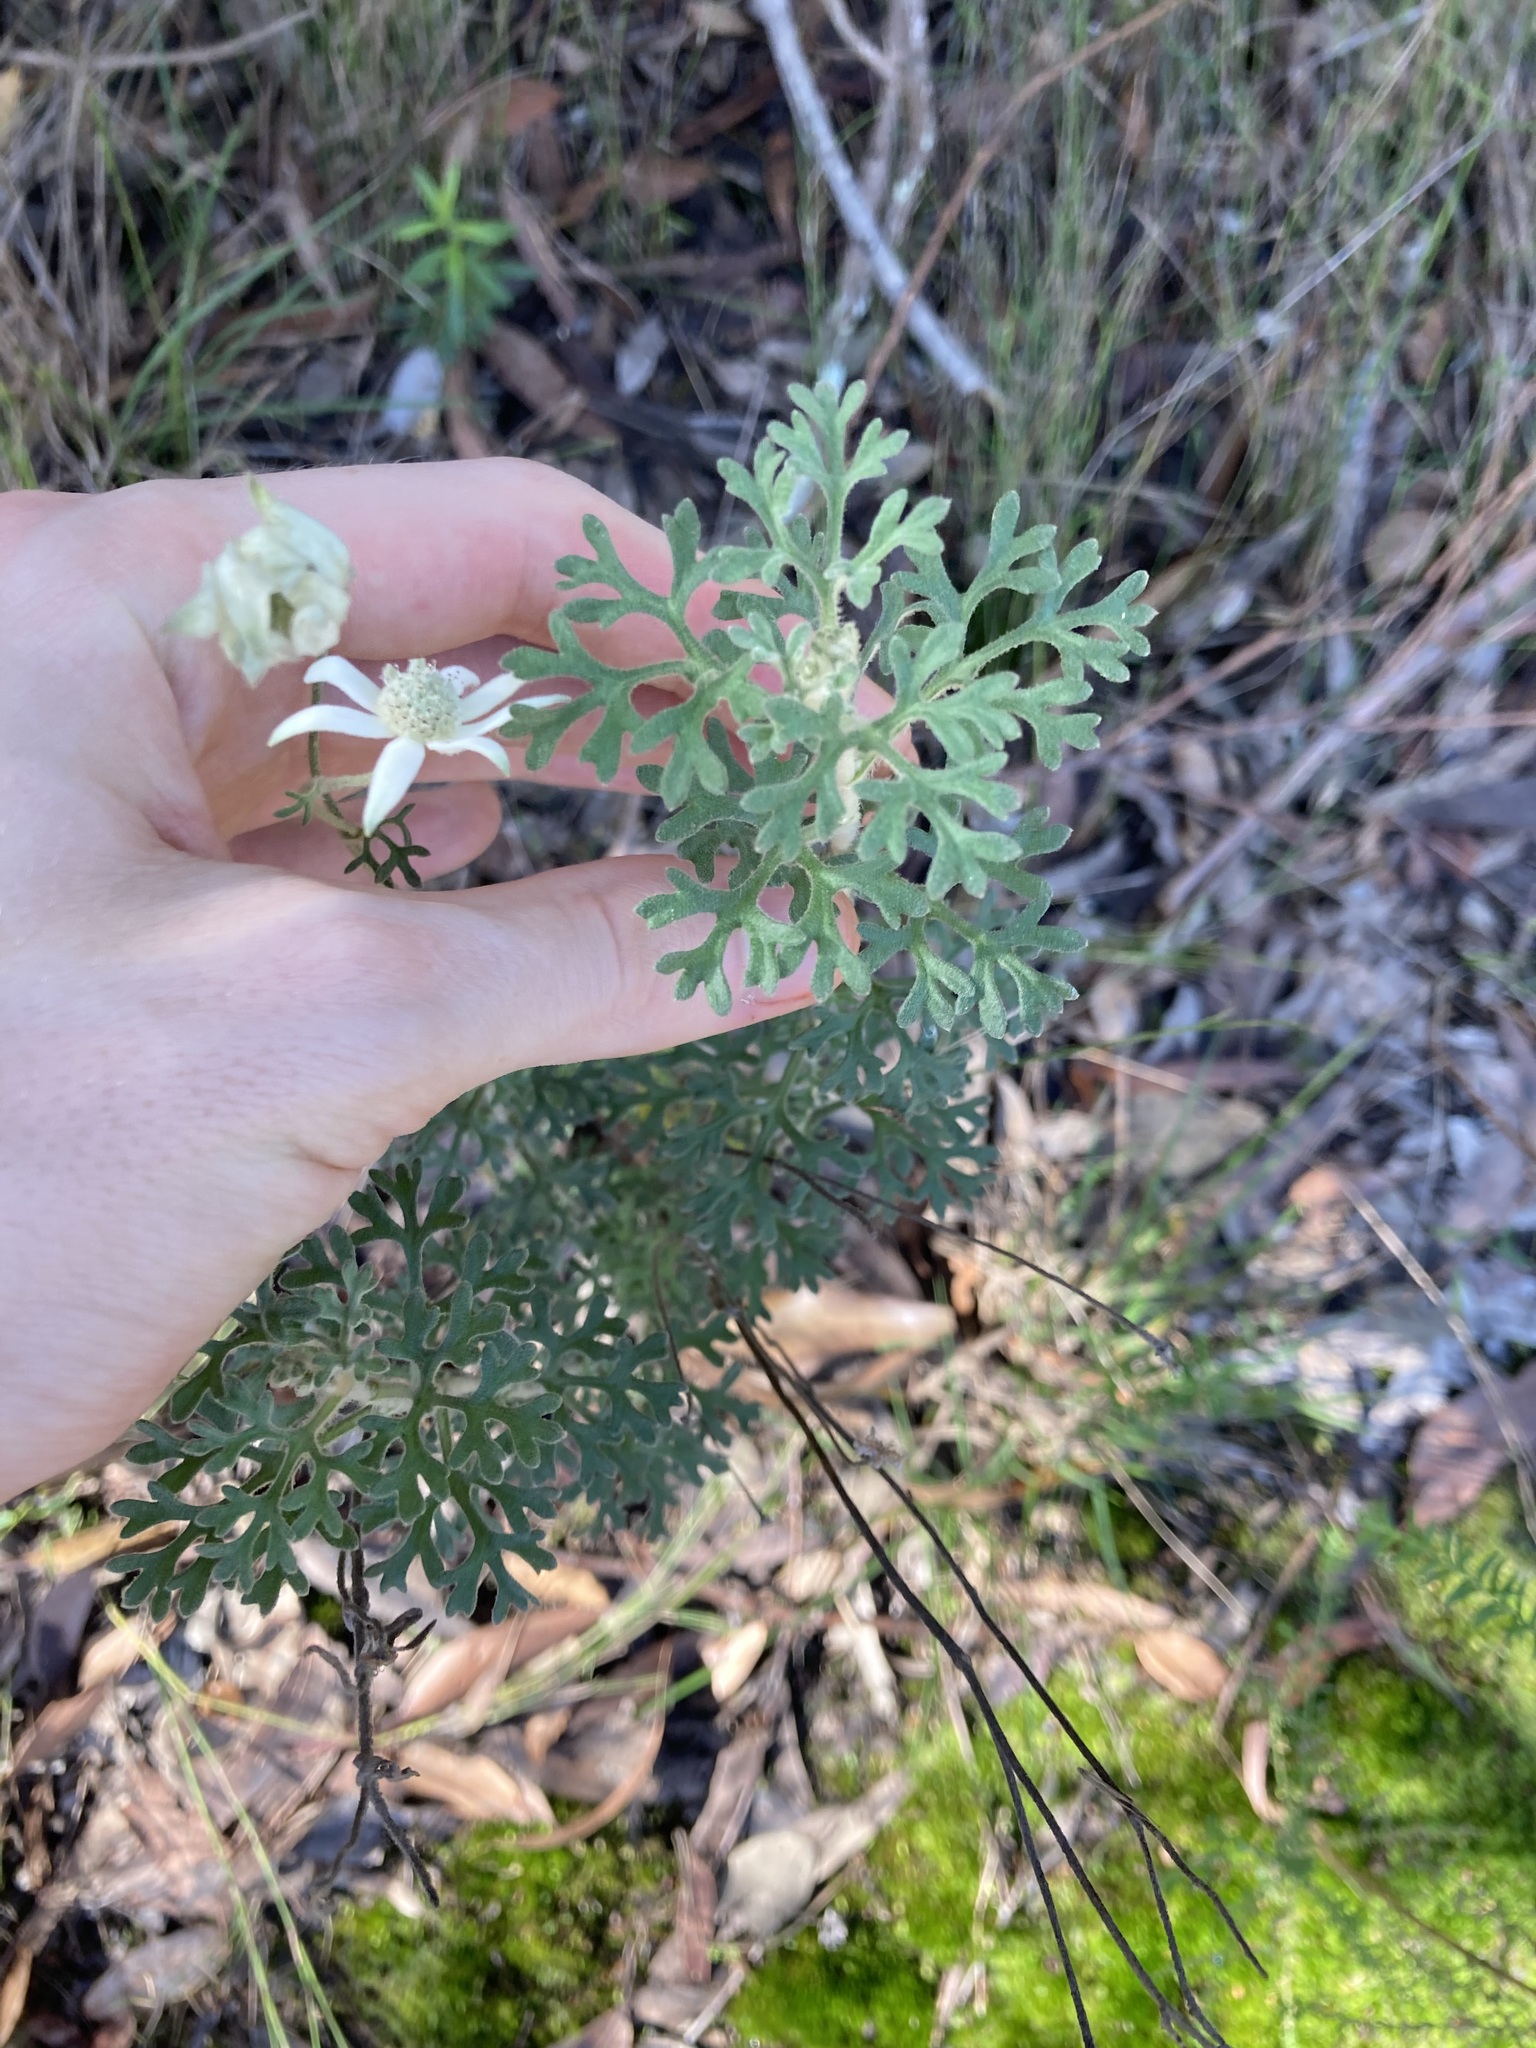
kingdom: Plantae
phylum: Tracheophyta
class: Magnoliopsida
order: Apiales
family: Apiaceae
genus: Actinotus
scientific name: Actinotus helianthi
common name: Flannel-flower
